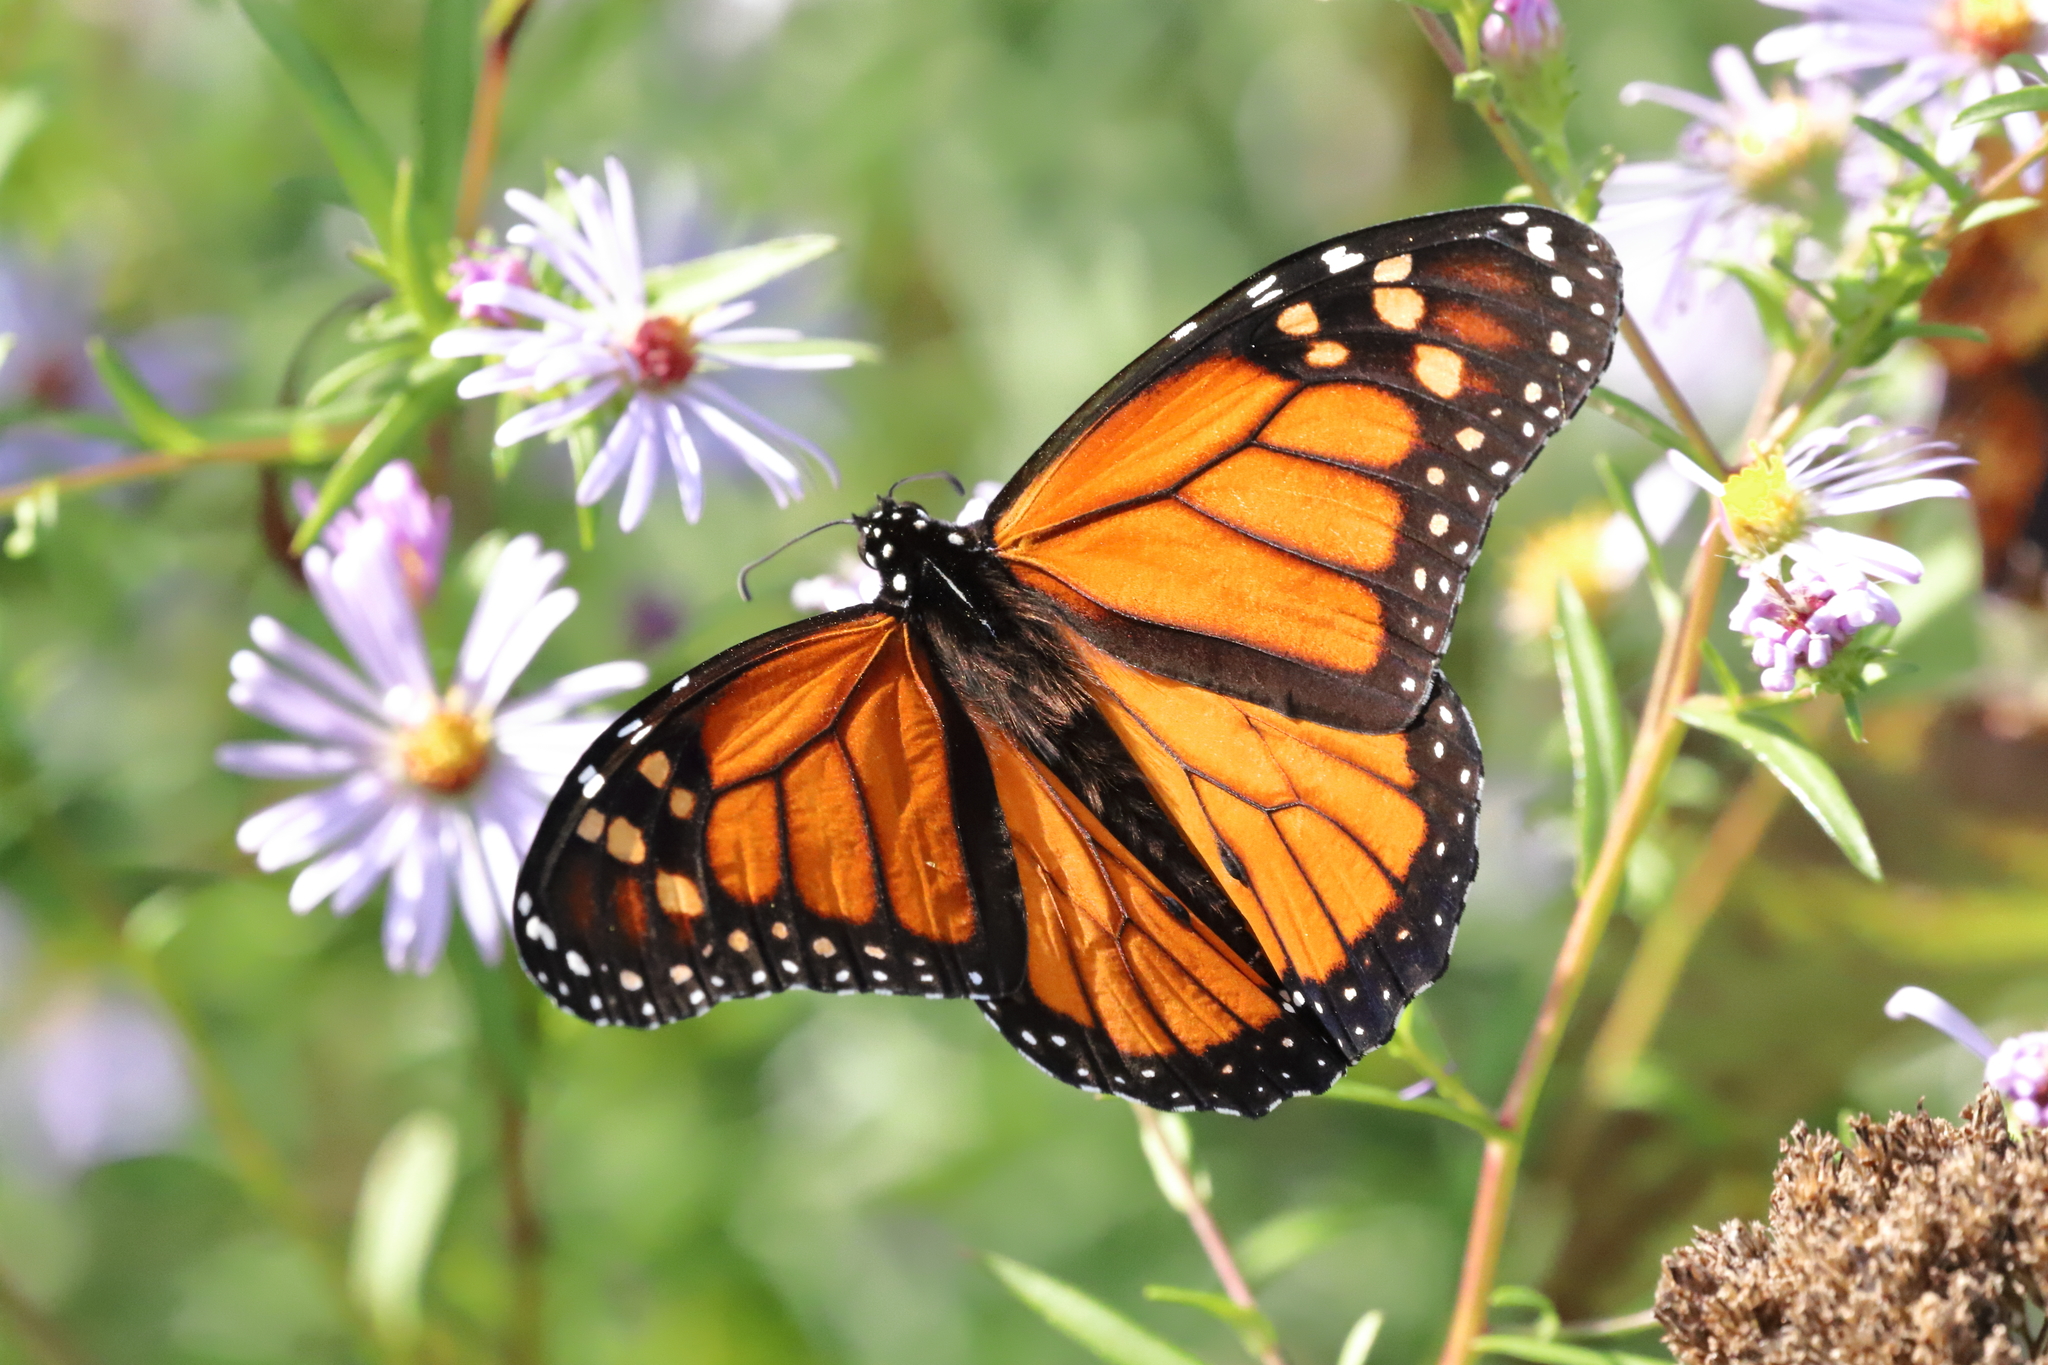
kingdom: Animalia
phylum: Arthropoda
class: Insecta
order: Lepidoptera
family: Nymphalidae
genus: Danaus
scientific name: Danaus plexippus
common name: Monarch
